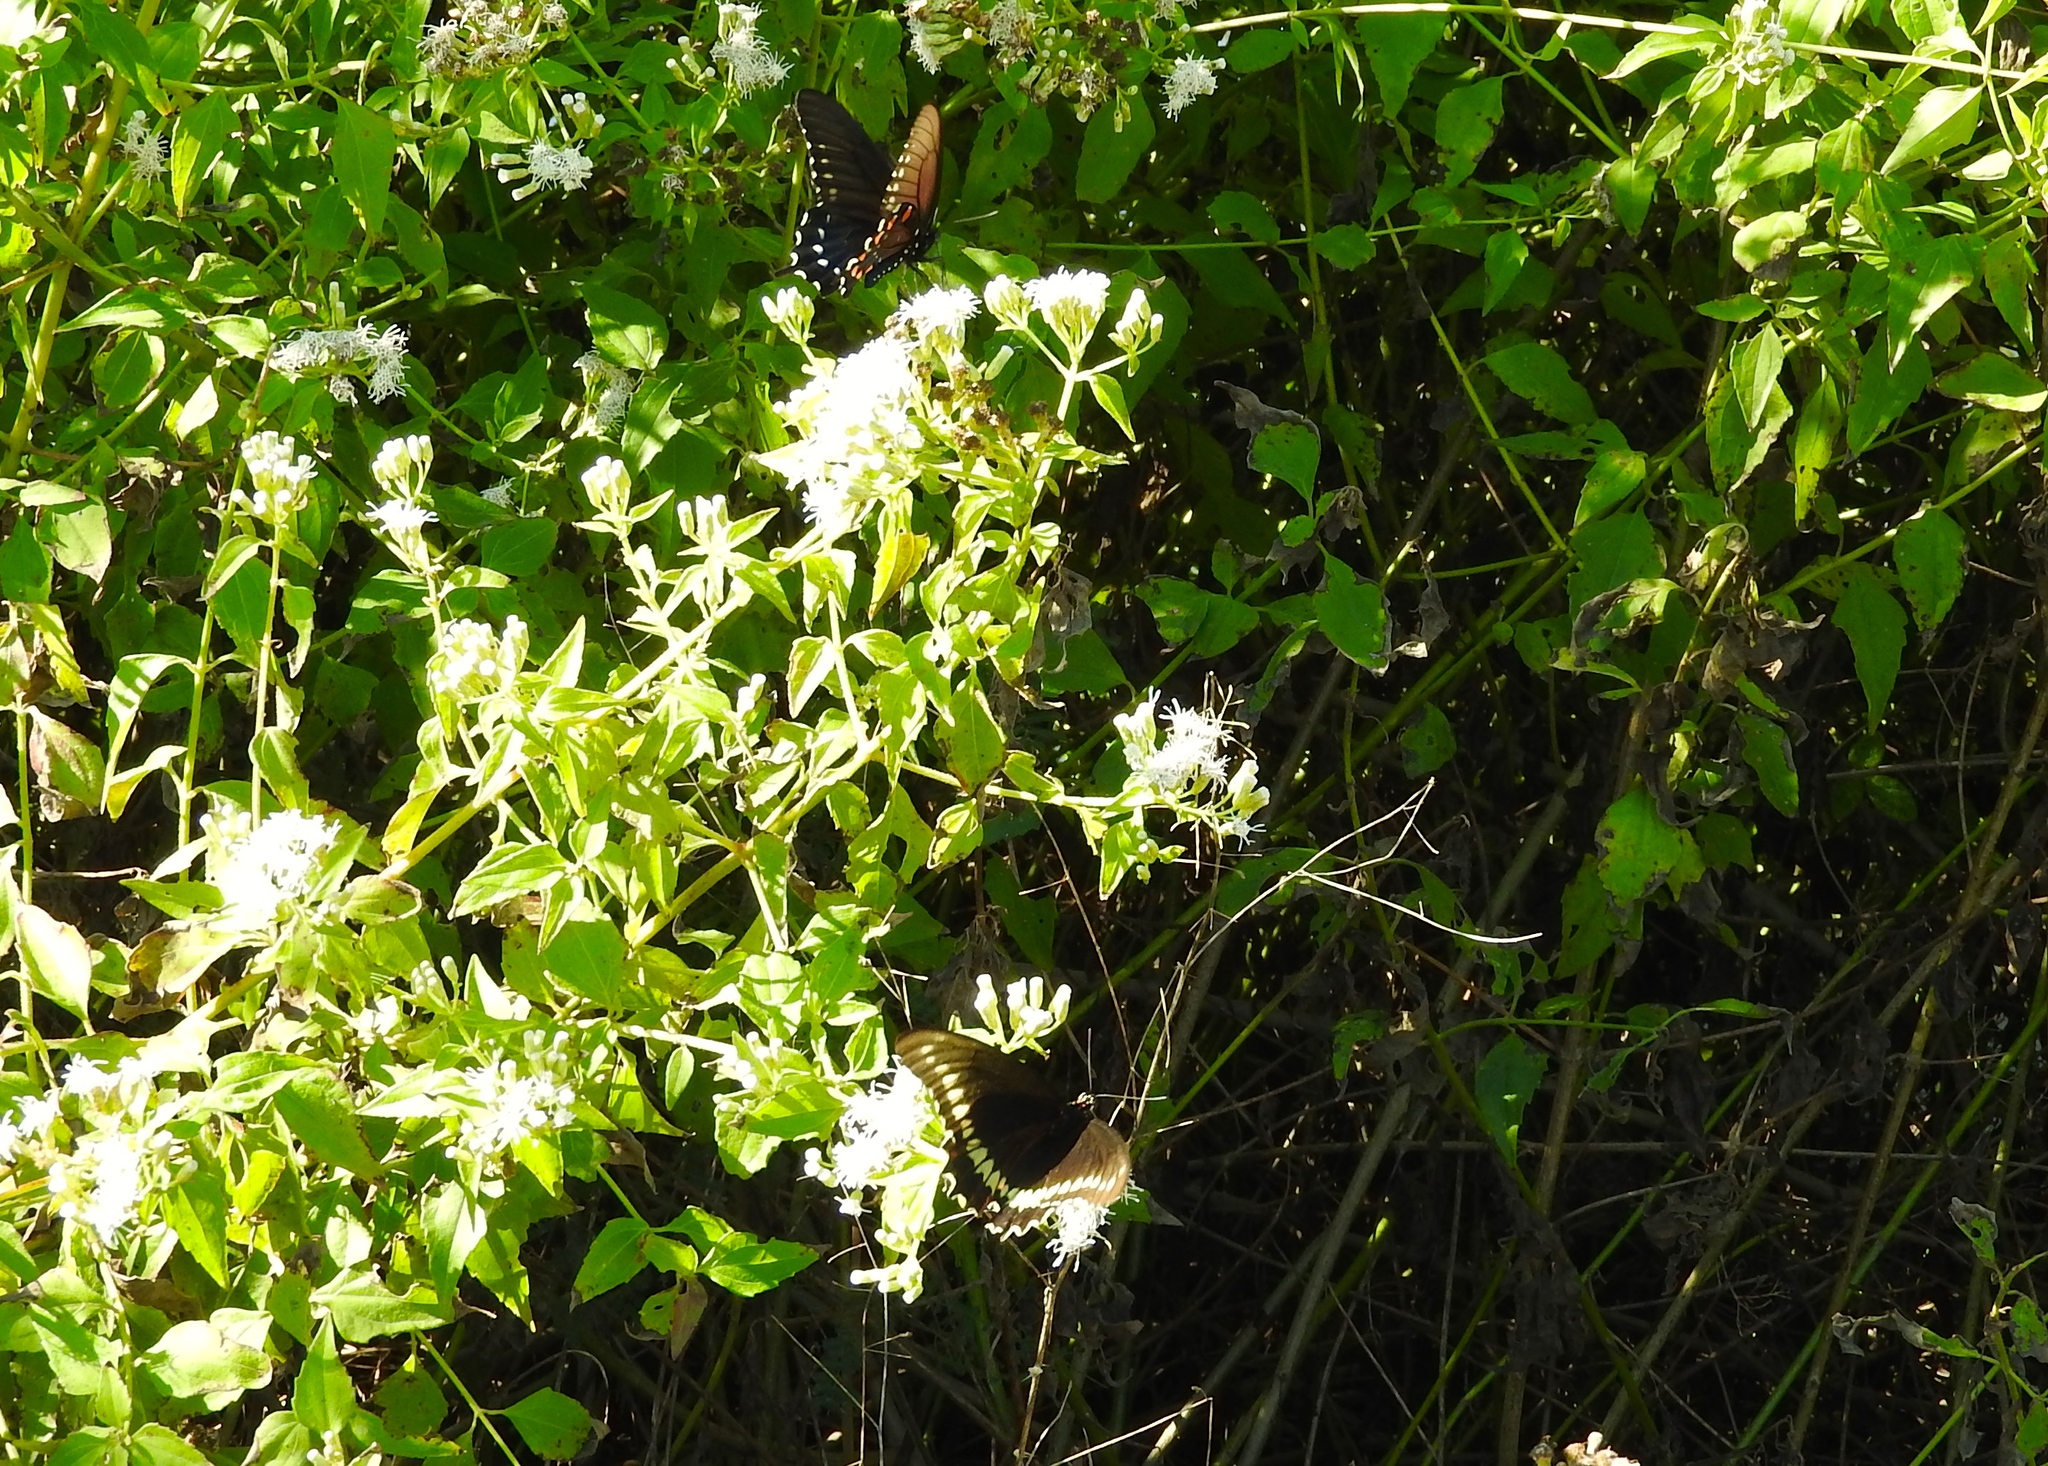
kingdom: Animalia
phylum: Arthropoda
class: Insecta
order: Lepidoptera
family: Papilionidae
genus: Battus
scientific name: Battus philenor
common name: Pipevine swallowtail
